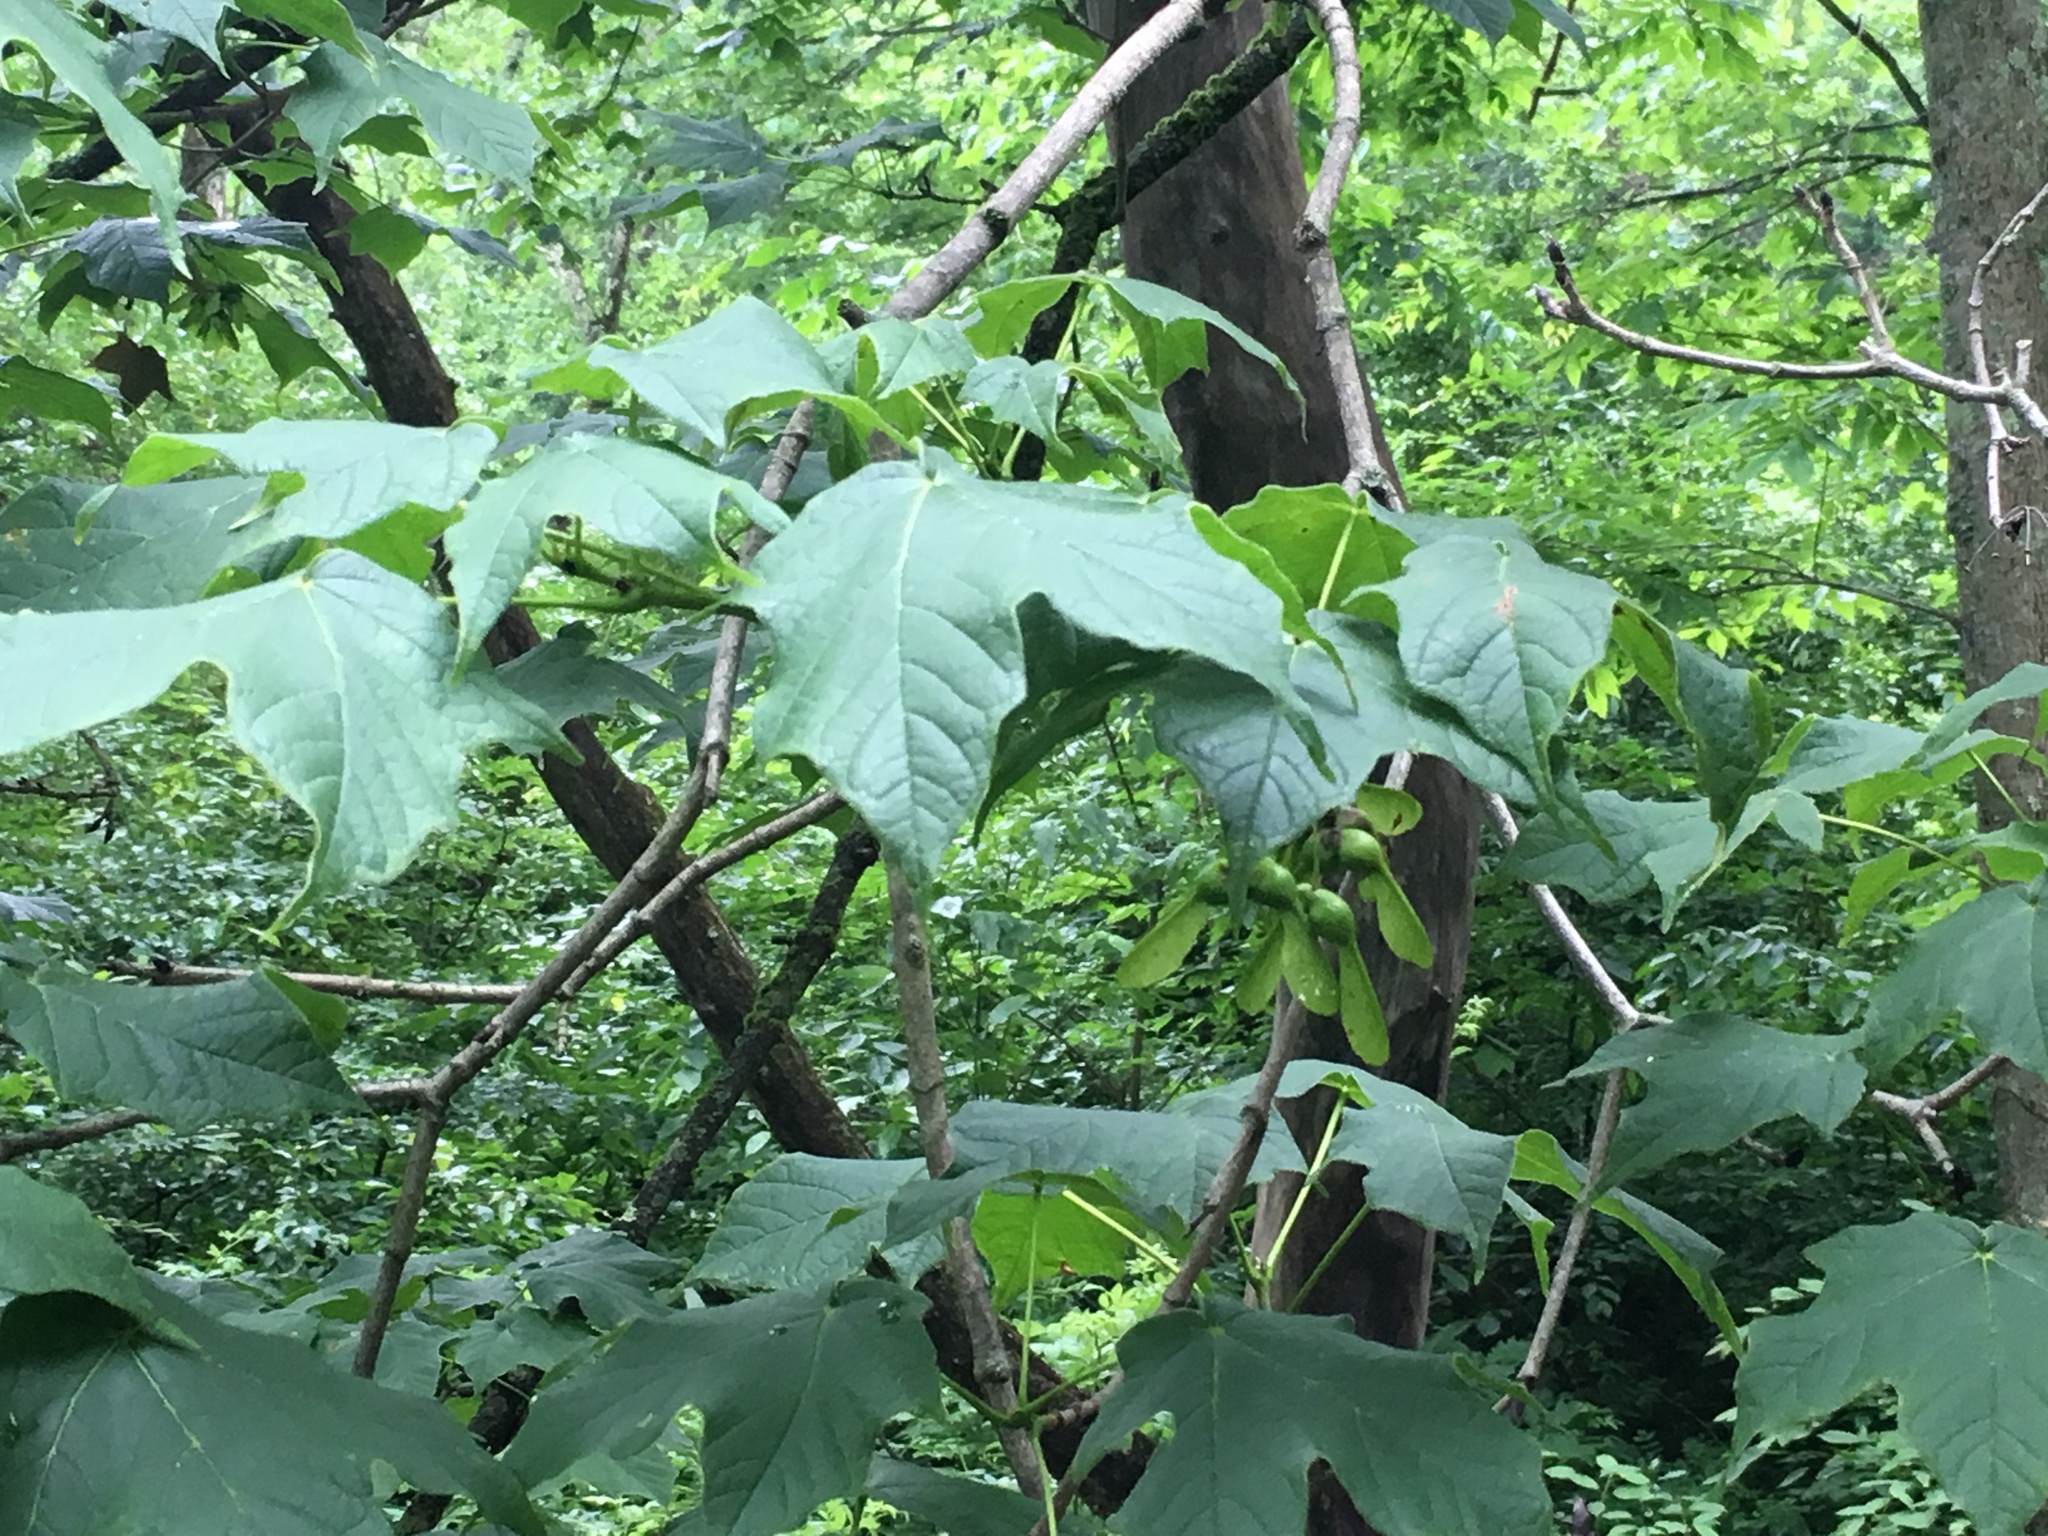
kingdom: Plantae
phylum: Tracheophyta
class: Magnoliopsida
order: Sapindales
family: Sapindaceae
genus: Acer
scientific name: Acer nigrum
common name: Black maple
